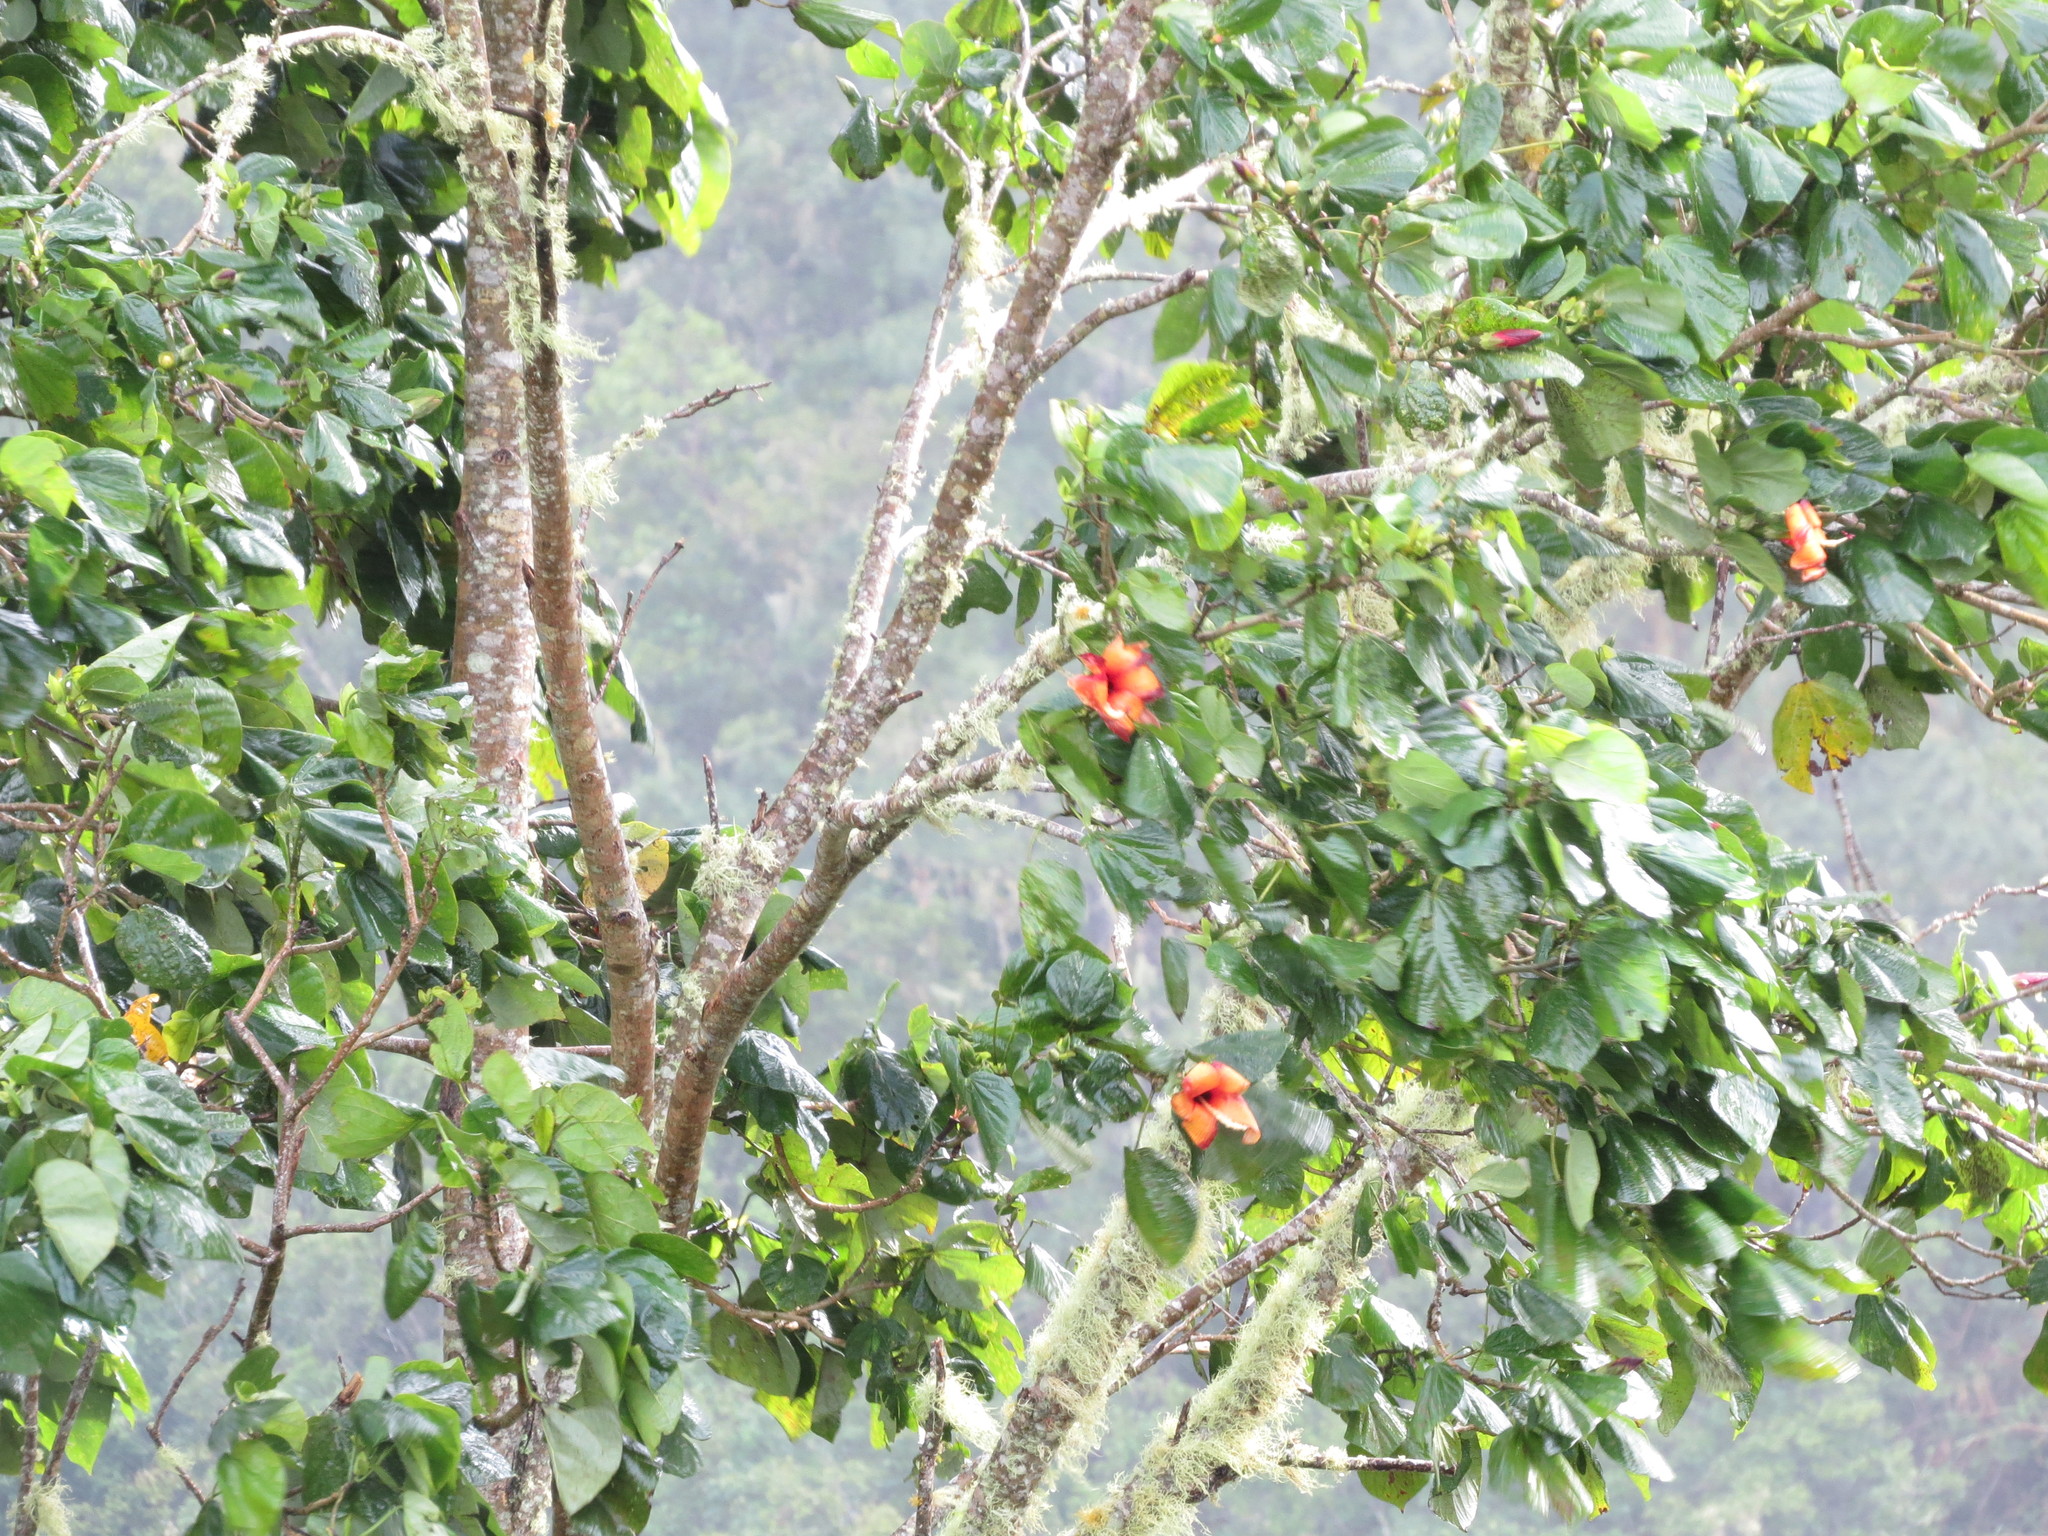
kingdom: Plantae
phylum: Tracheophyta
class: Magnoliopsida
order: Malvales
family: Malvaceae
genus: Talipariti
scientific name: Talipariti
